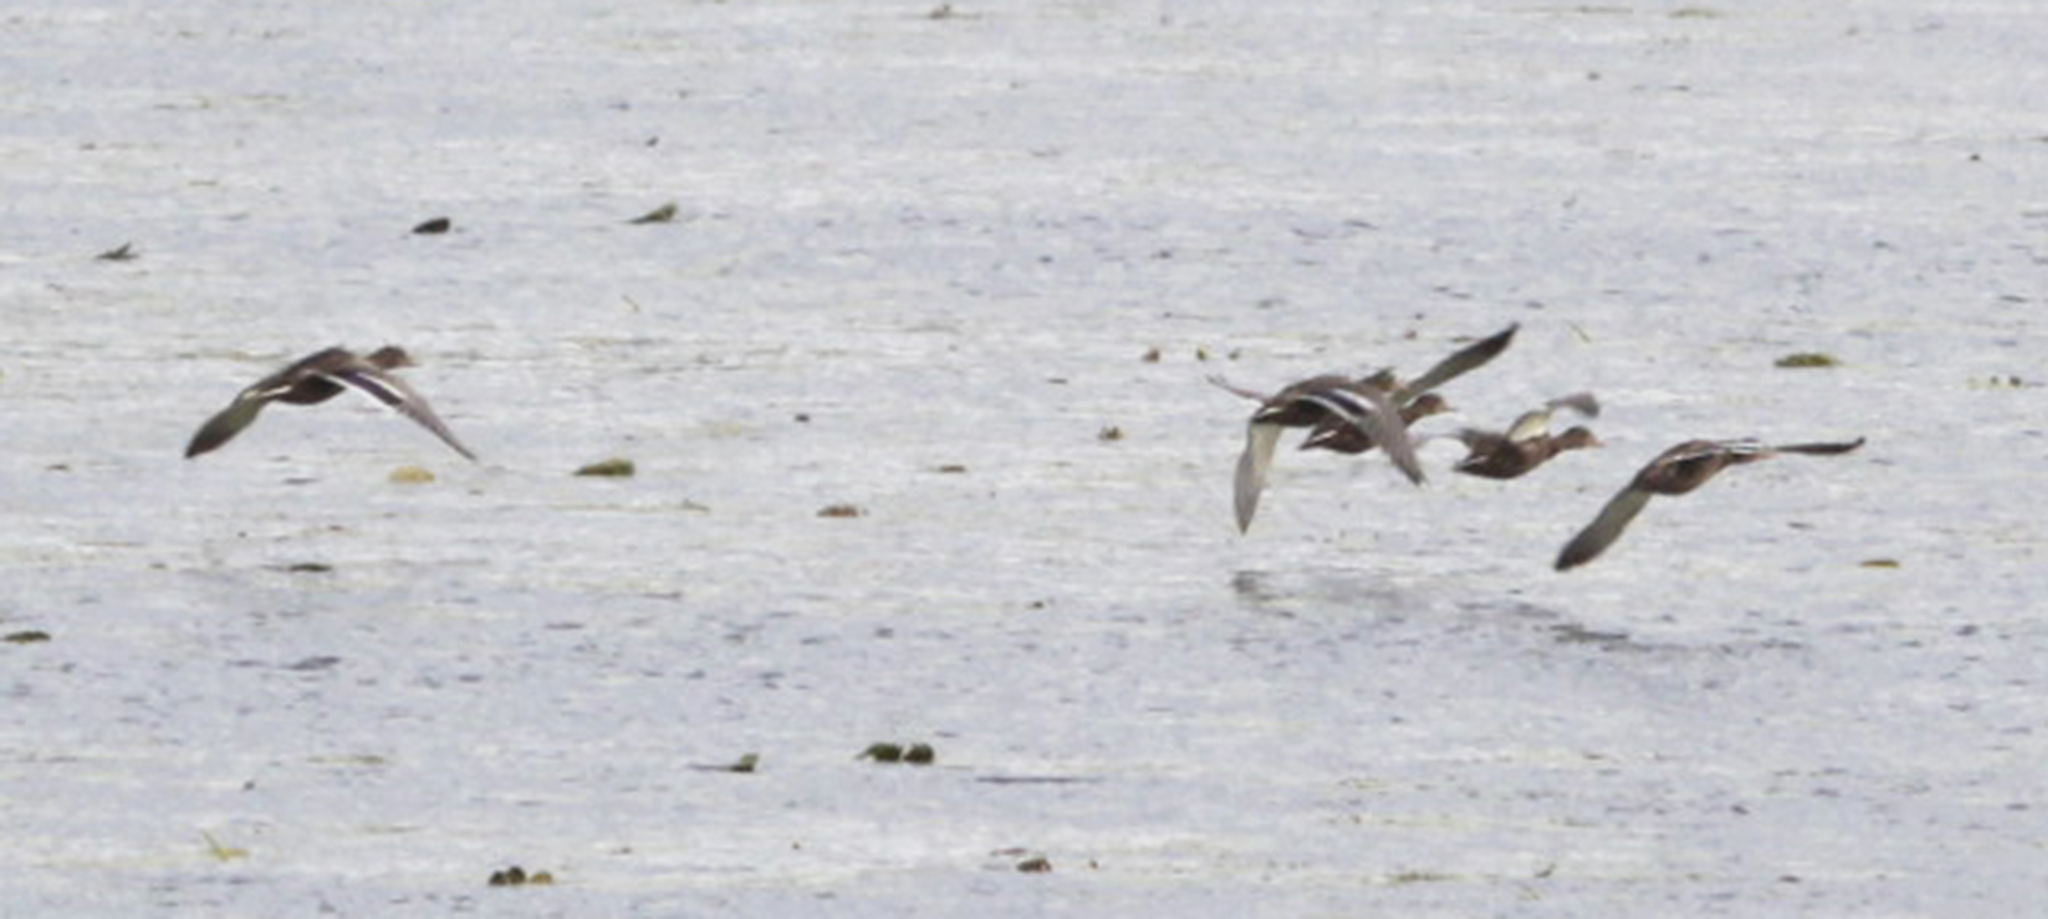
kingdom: Animalia
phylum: Chordata
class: Aves
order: Anseriformes
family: Anatidae
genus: Anas
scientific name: Anas platyrhynchos
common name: Mallard
